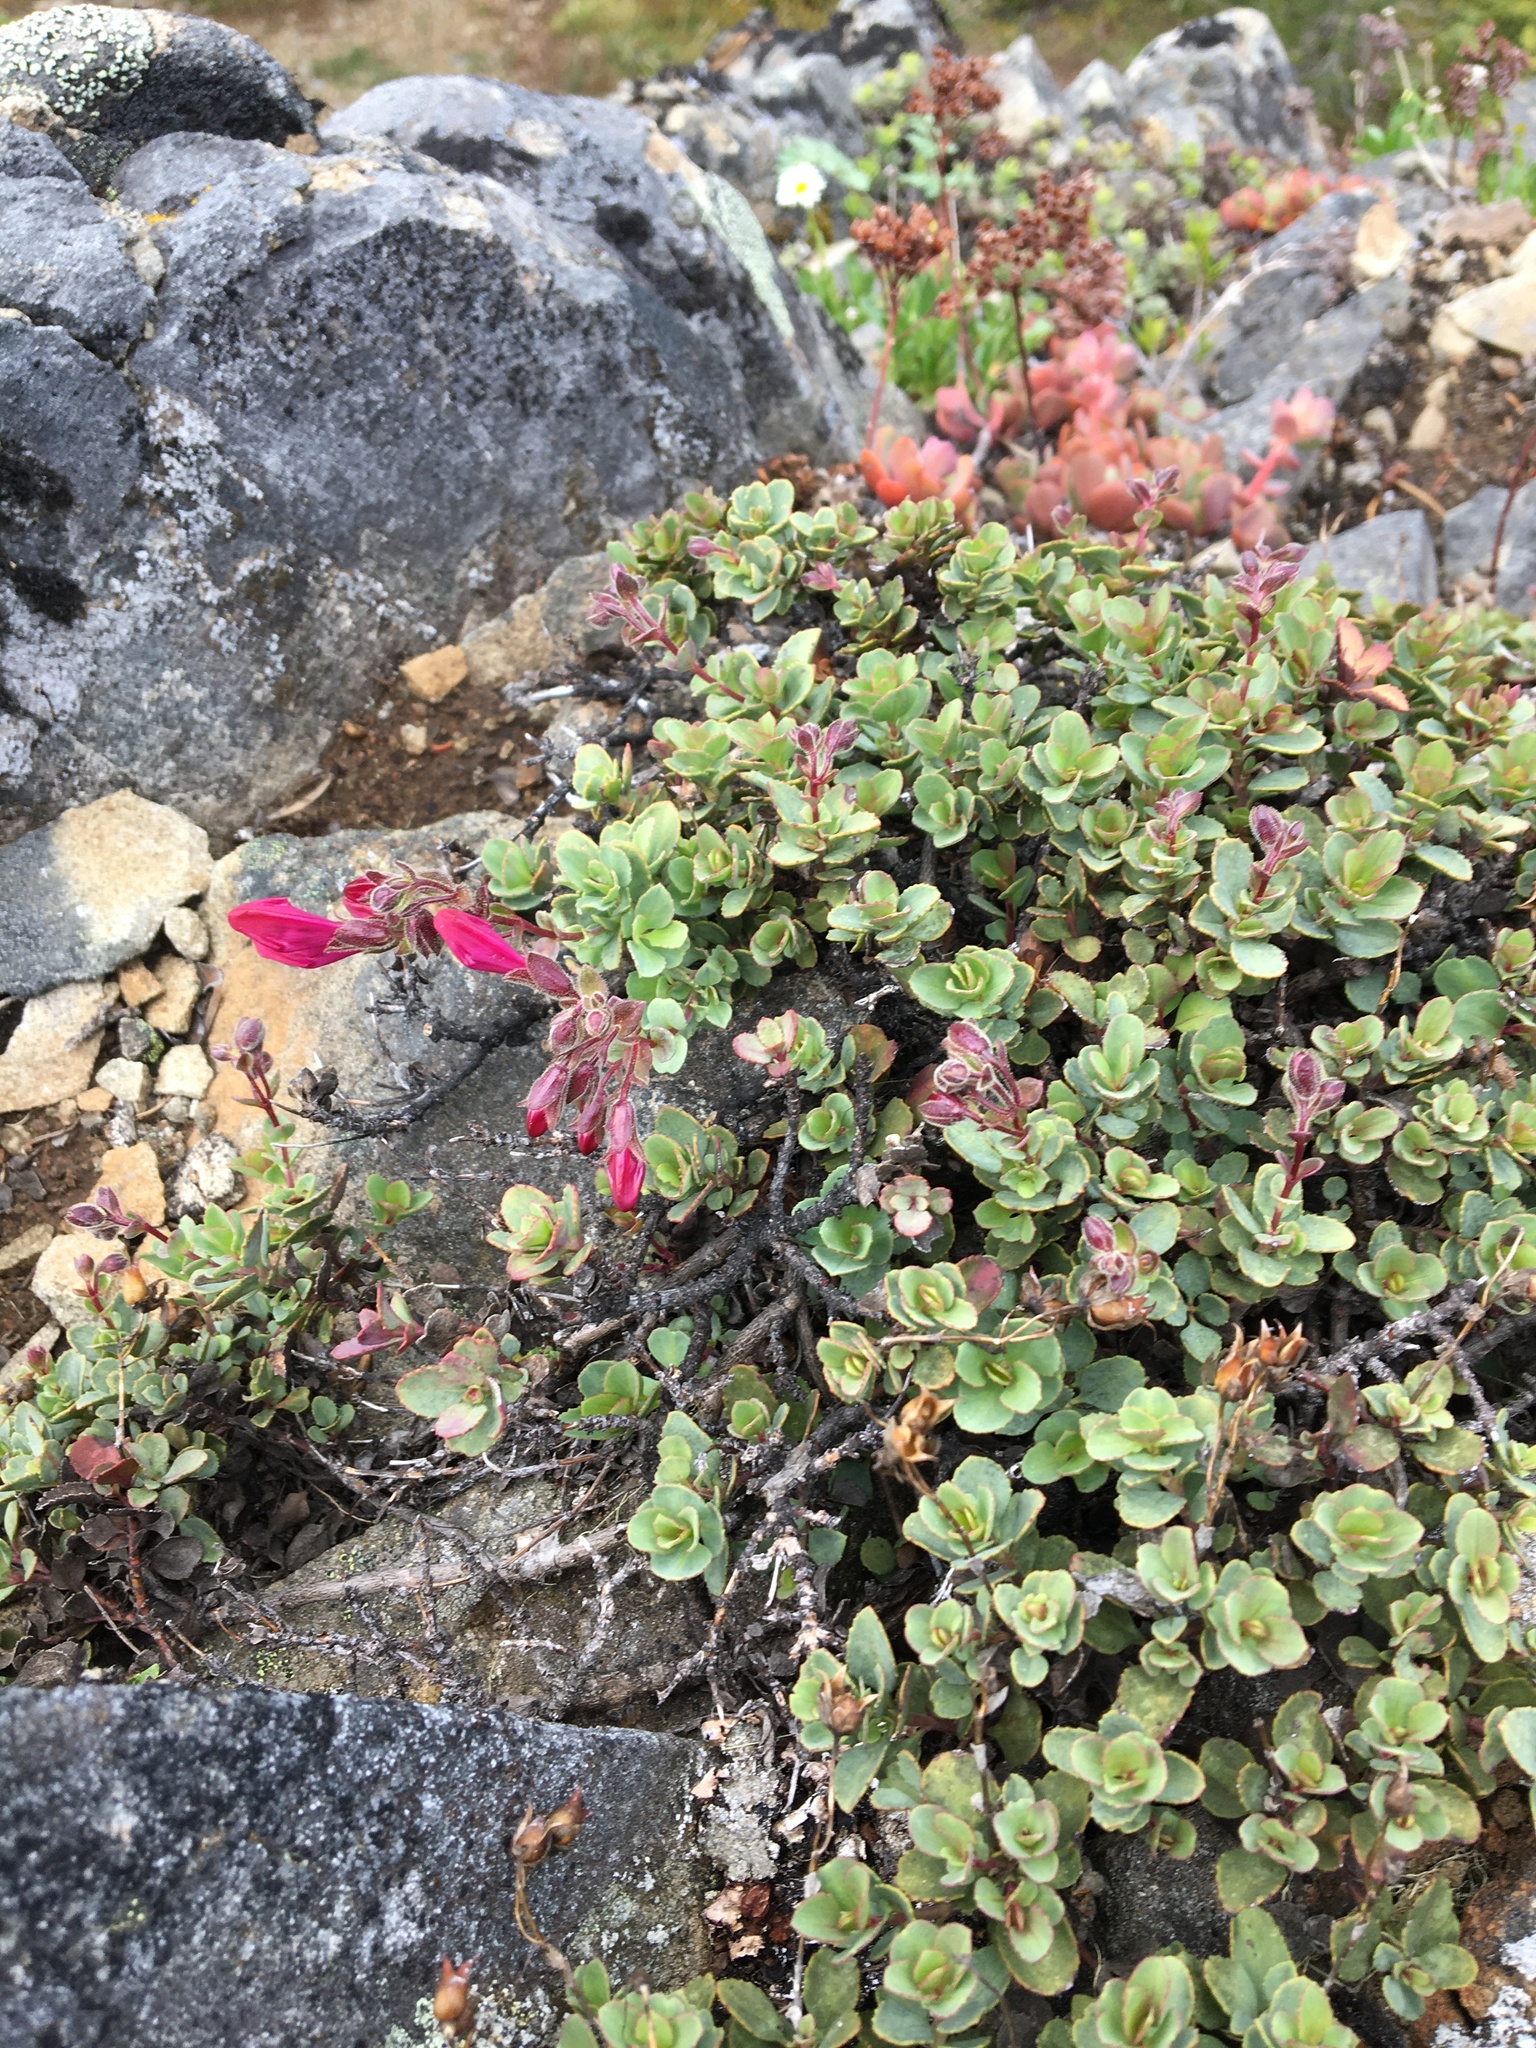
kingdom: Plantae
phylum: Tracheophyta
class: Magnoliopsida
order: Lamiales
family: Plantaginaceae
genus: Penstemon
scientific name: Penstemon rupicola
